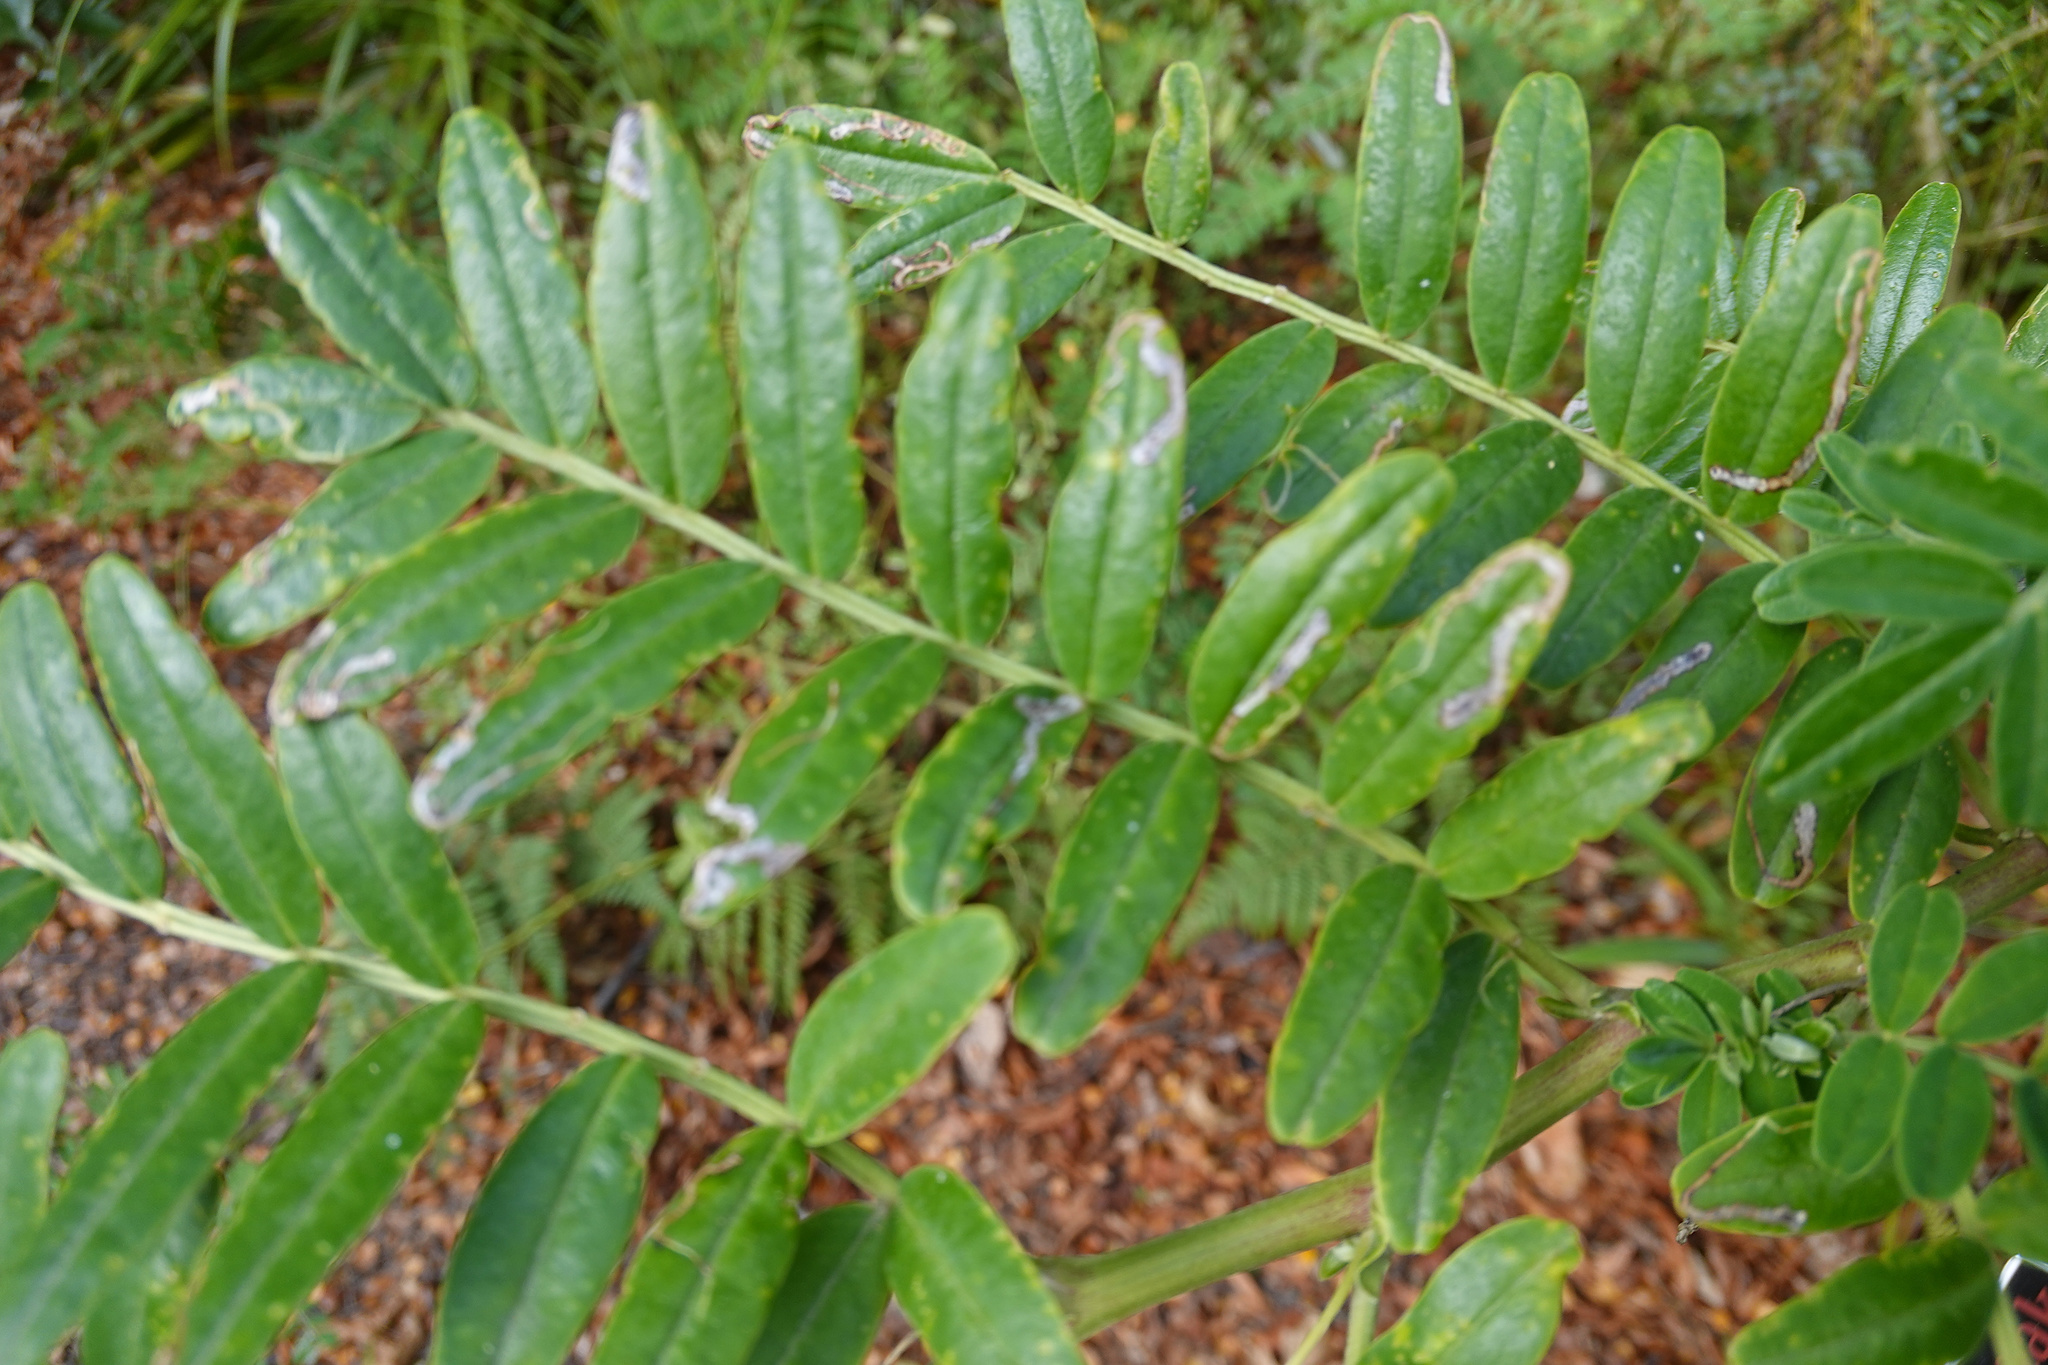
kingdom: Animalia
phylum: Arthropoda
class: Insecta
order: Diptera
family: Agromyzidae
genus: Liriomyza
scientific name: Liriomyza clianthi
